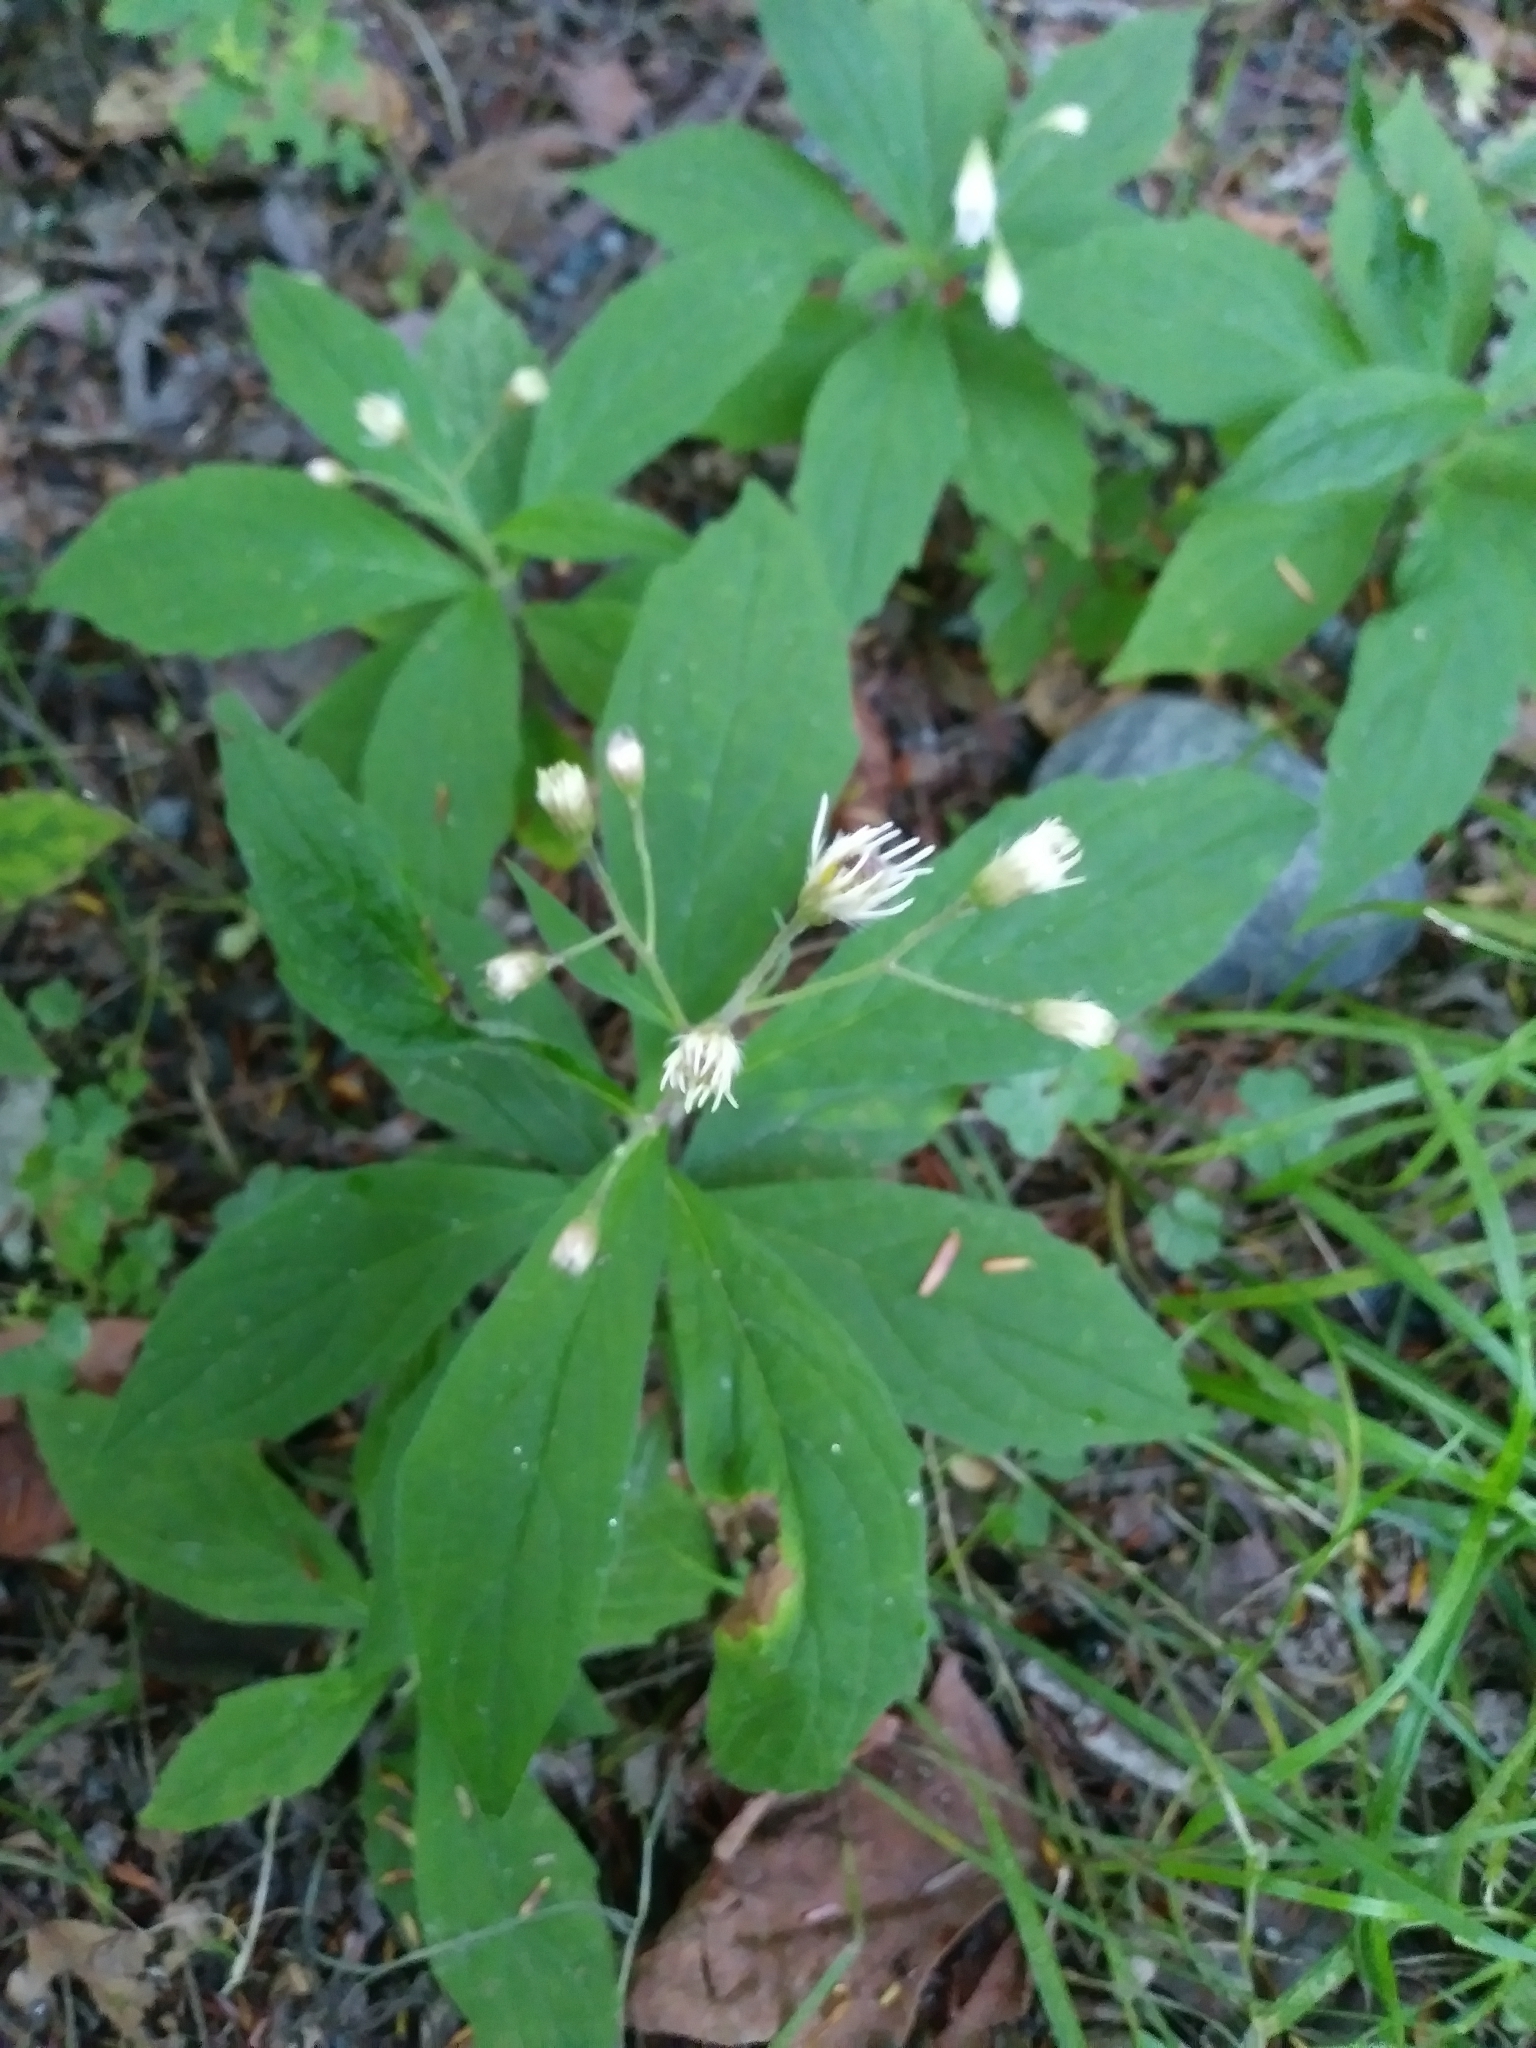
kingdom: Plantae
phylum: Tracheophyta
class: Magnoliopsida
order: Asterales
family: Asteraceae
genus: Oclemena
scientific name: Oclemena acuminata
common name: Mountain aster
